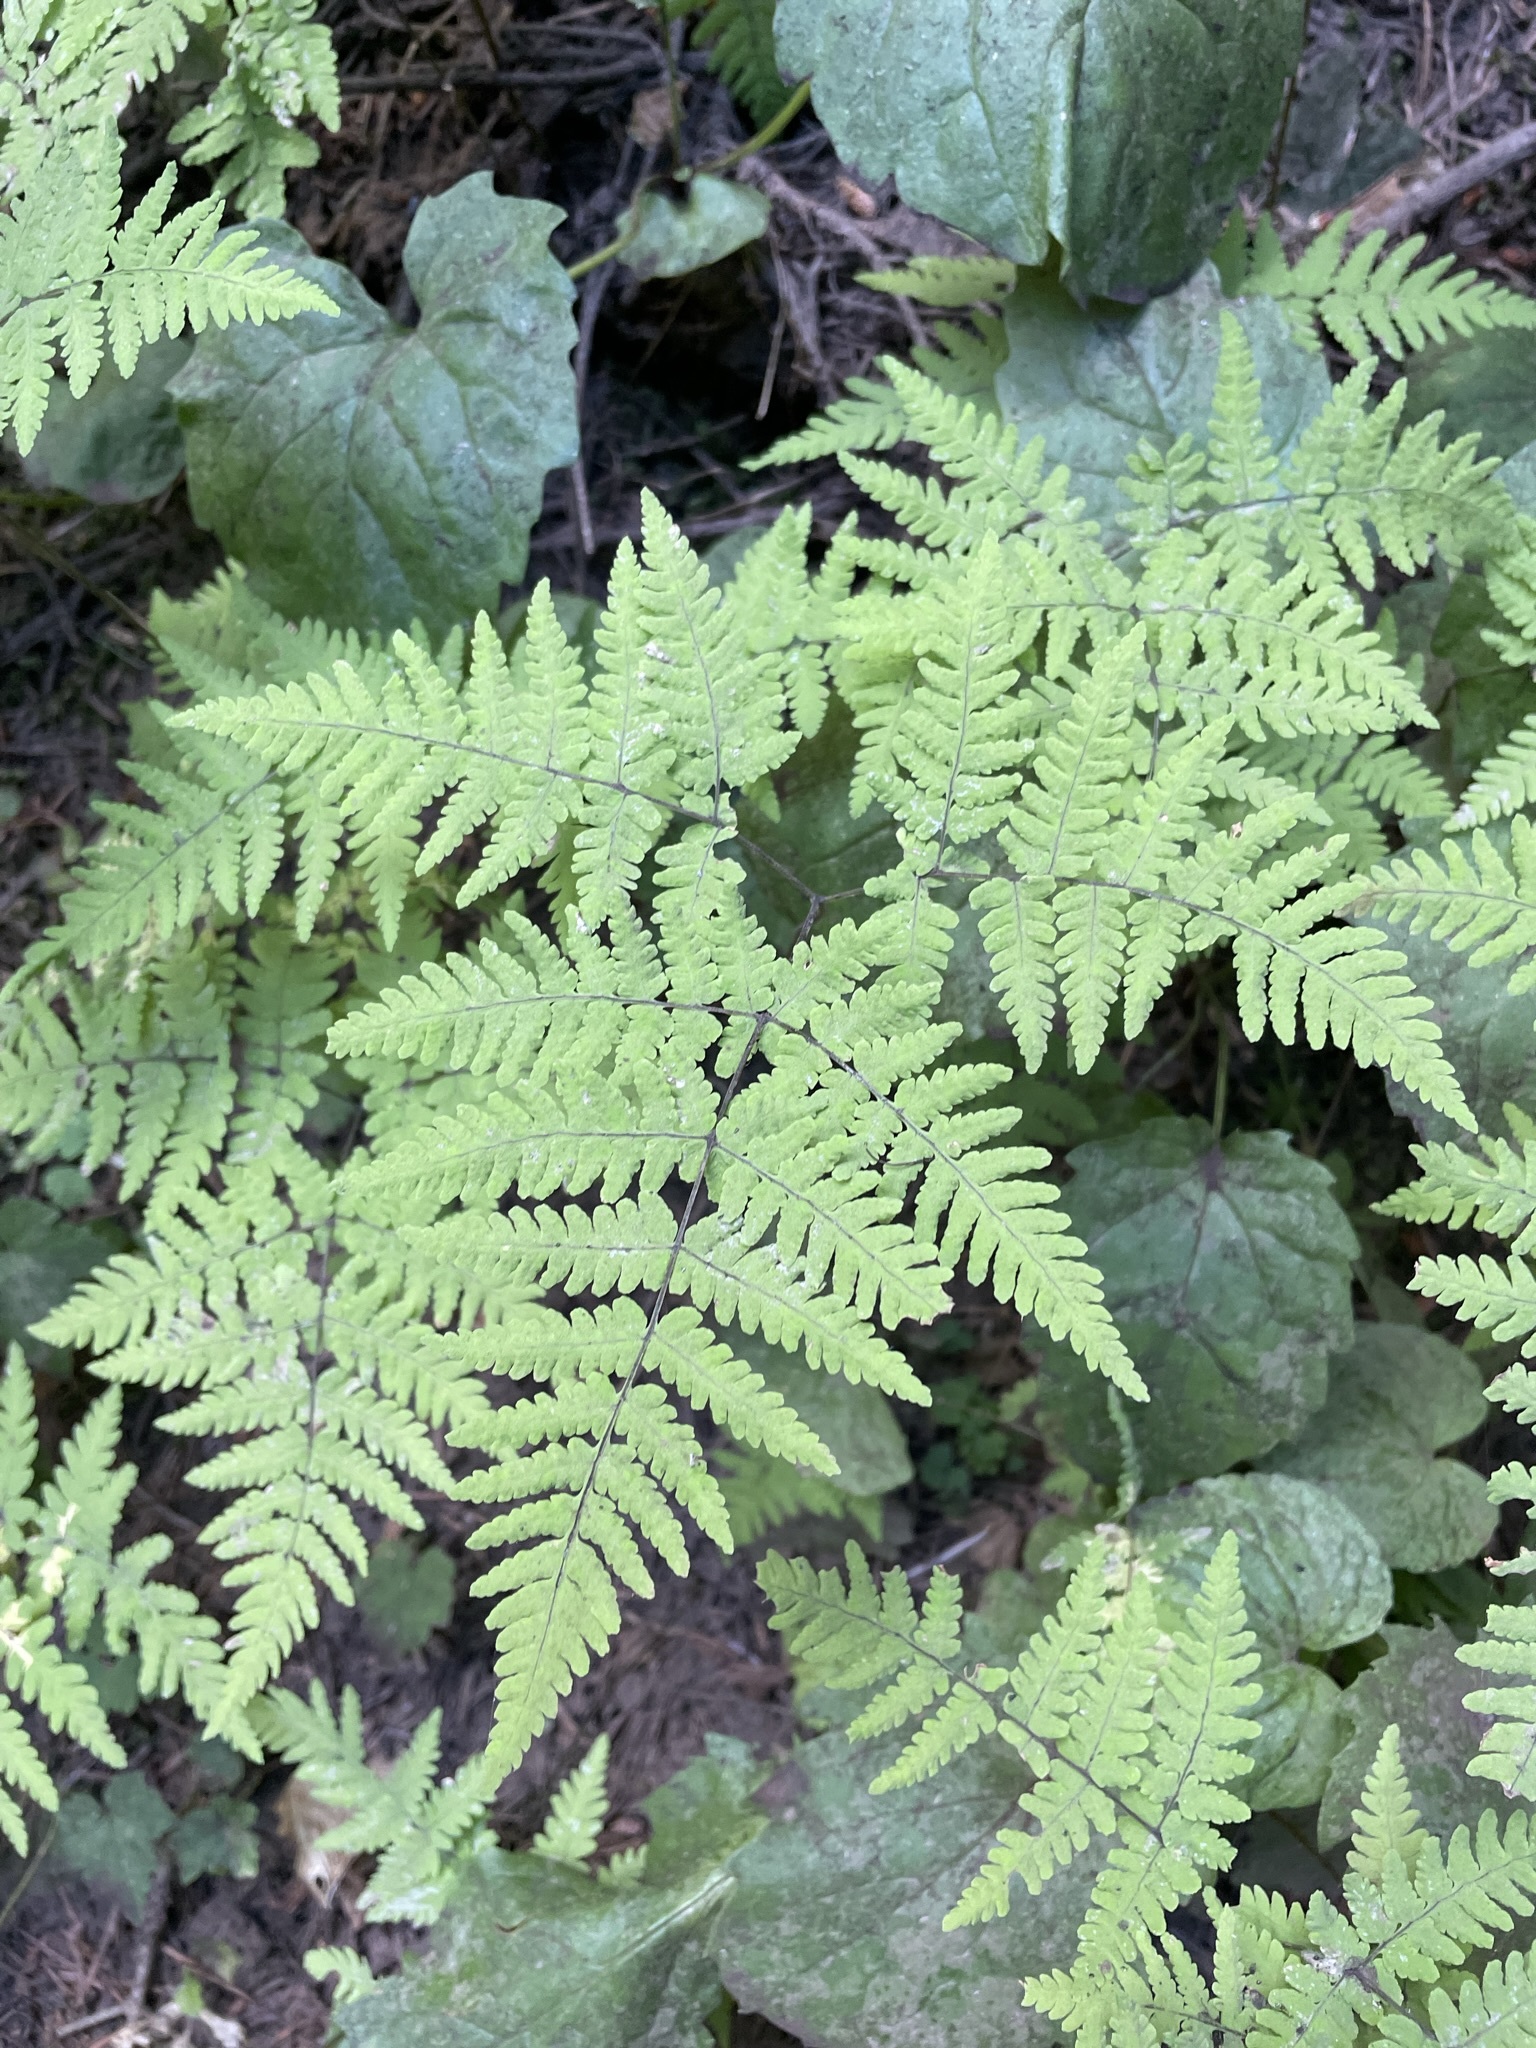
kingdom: Plantae
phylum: Tracheophyta
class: Polypodiopsida
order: Polypodiales
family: Cystopteridaceae
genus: Gymnocarpium
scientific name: Gymnocarpium disjunctum
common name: Western oak fern
